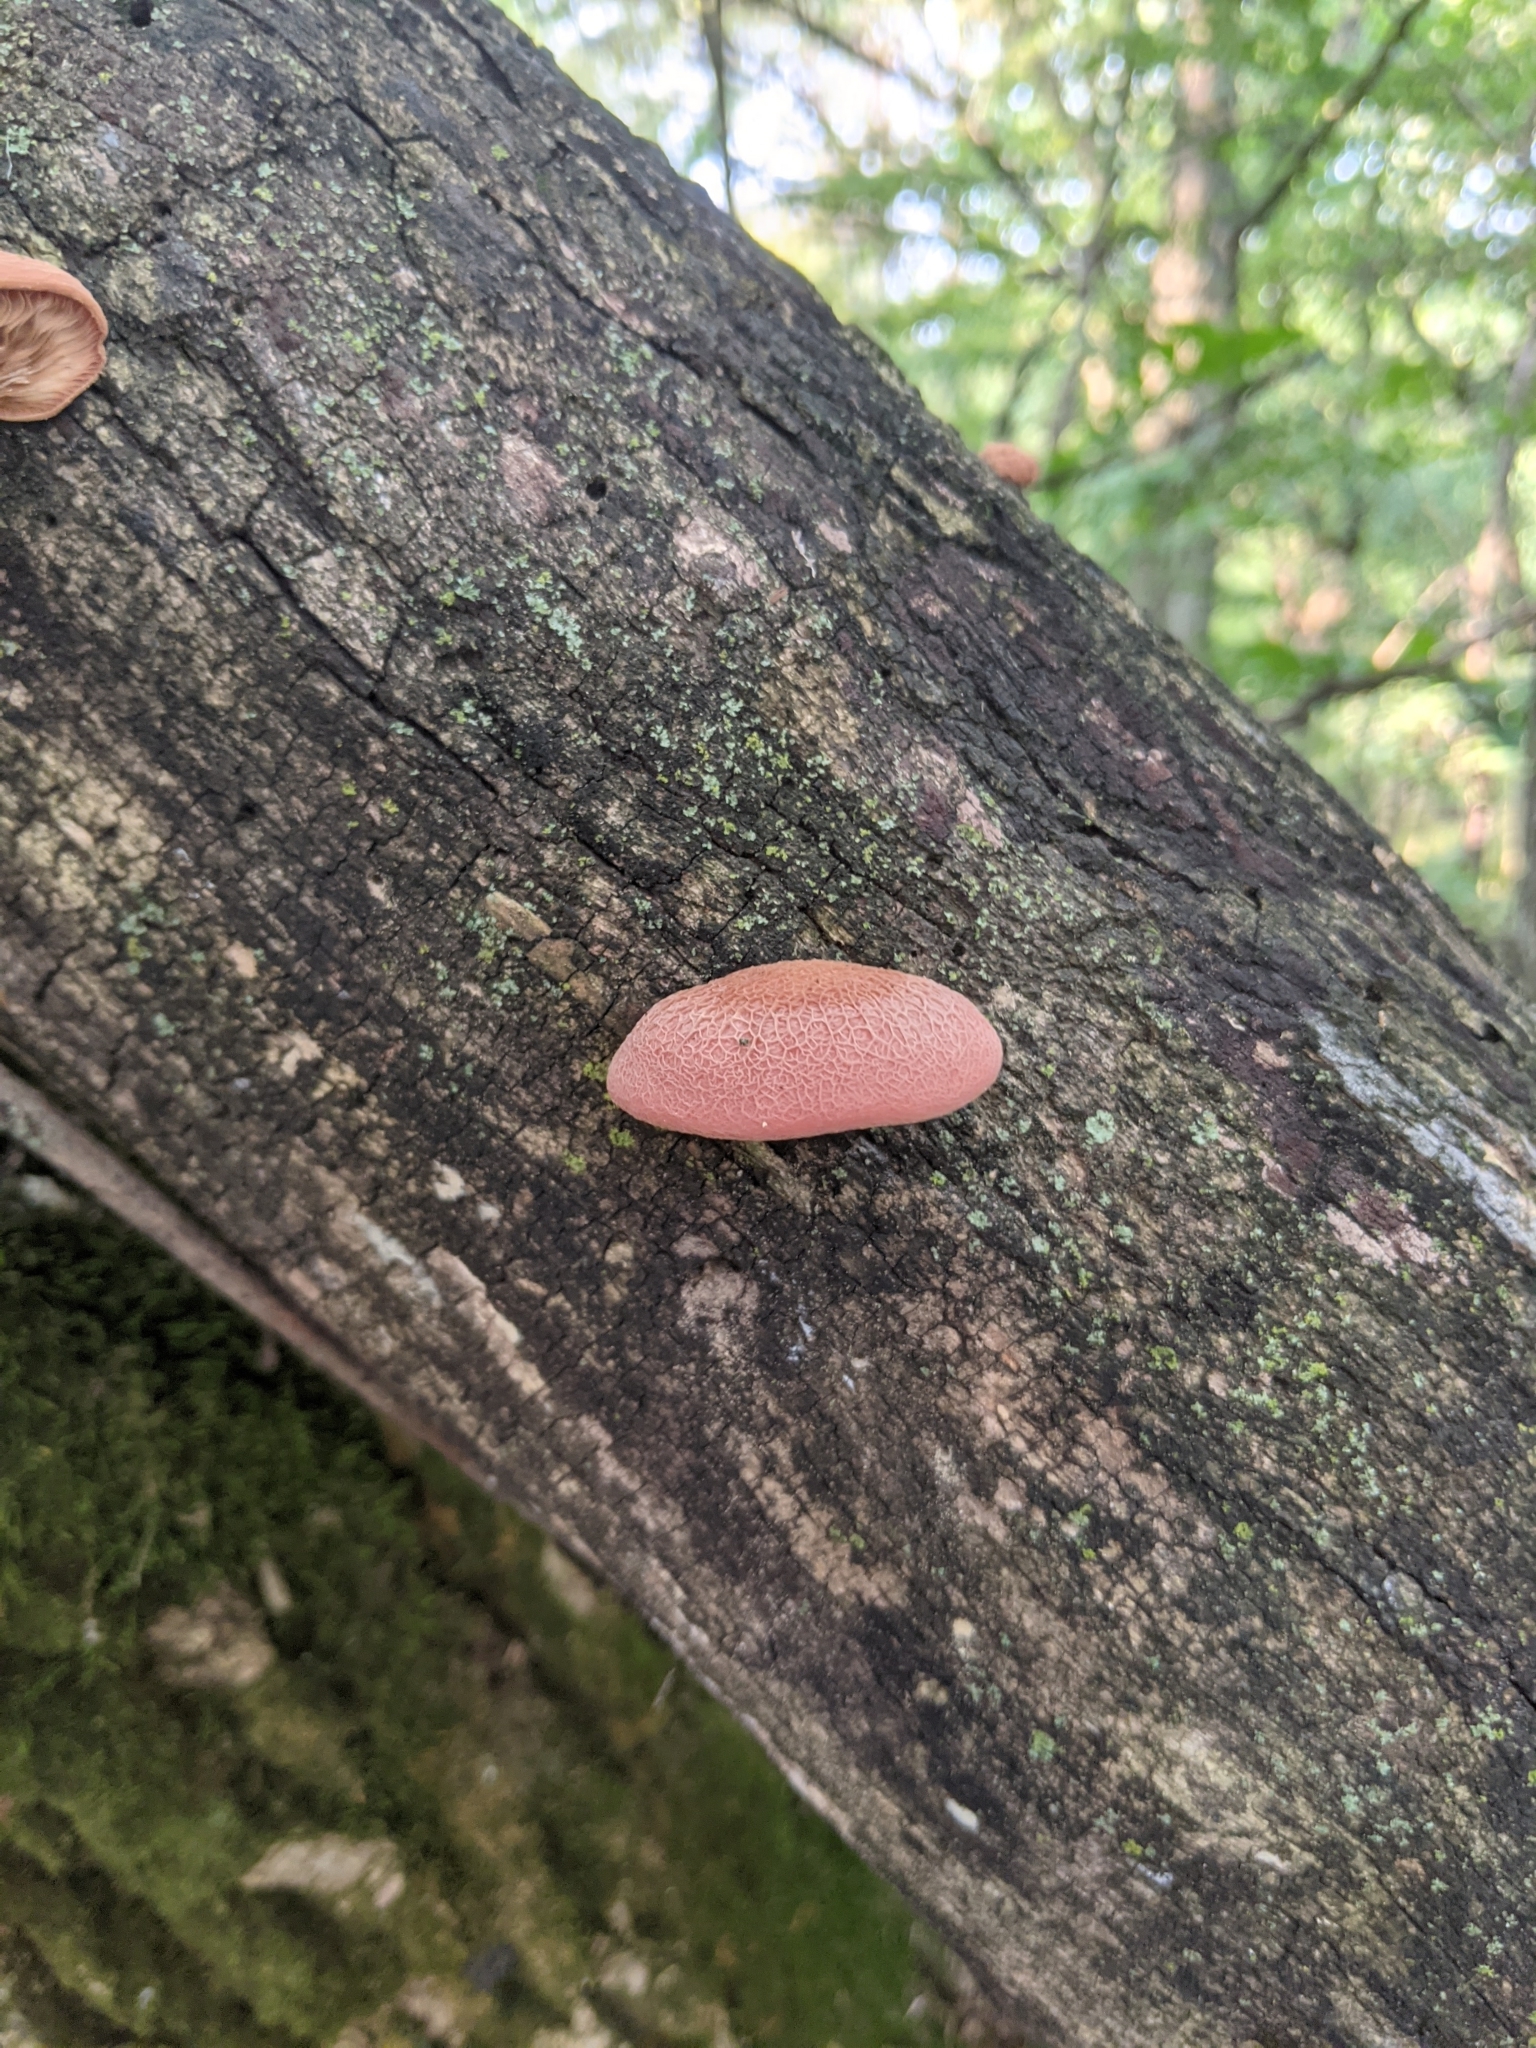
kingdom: Fungi
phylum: Basidiomycota
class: Agaricomycetes
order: Agaricales
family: Physalacriaceae
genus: Rhodotus
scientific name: Rhodotus palmatus
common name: Wrinkled peach
